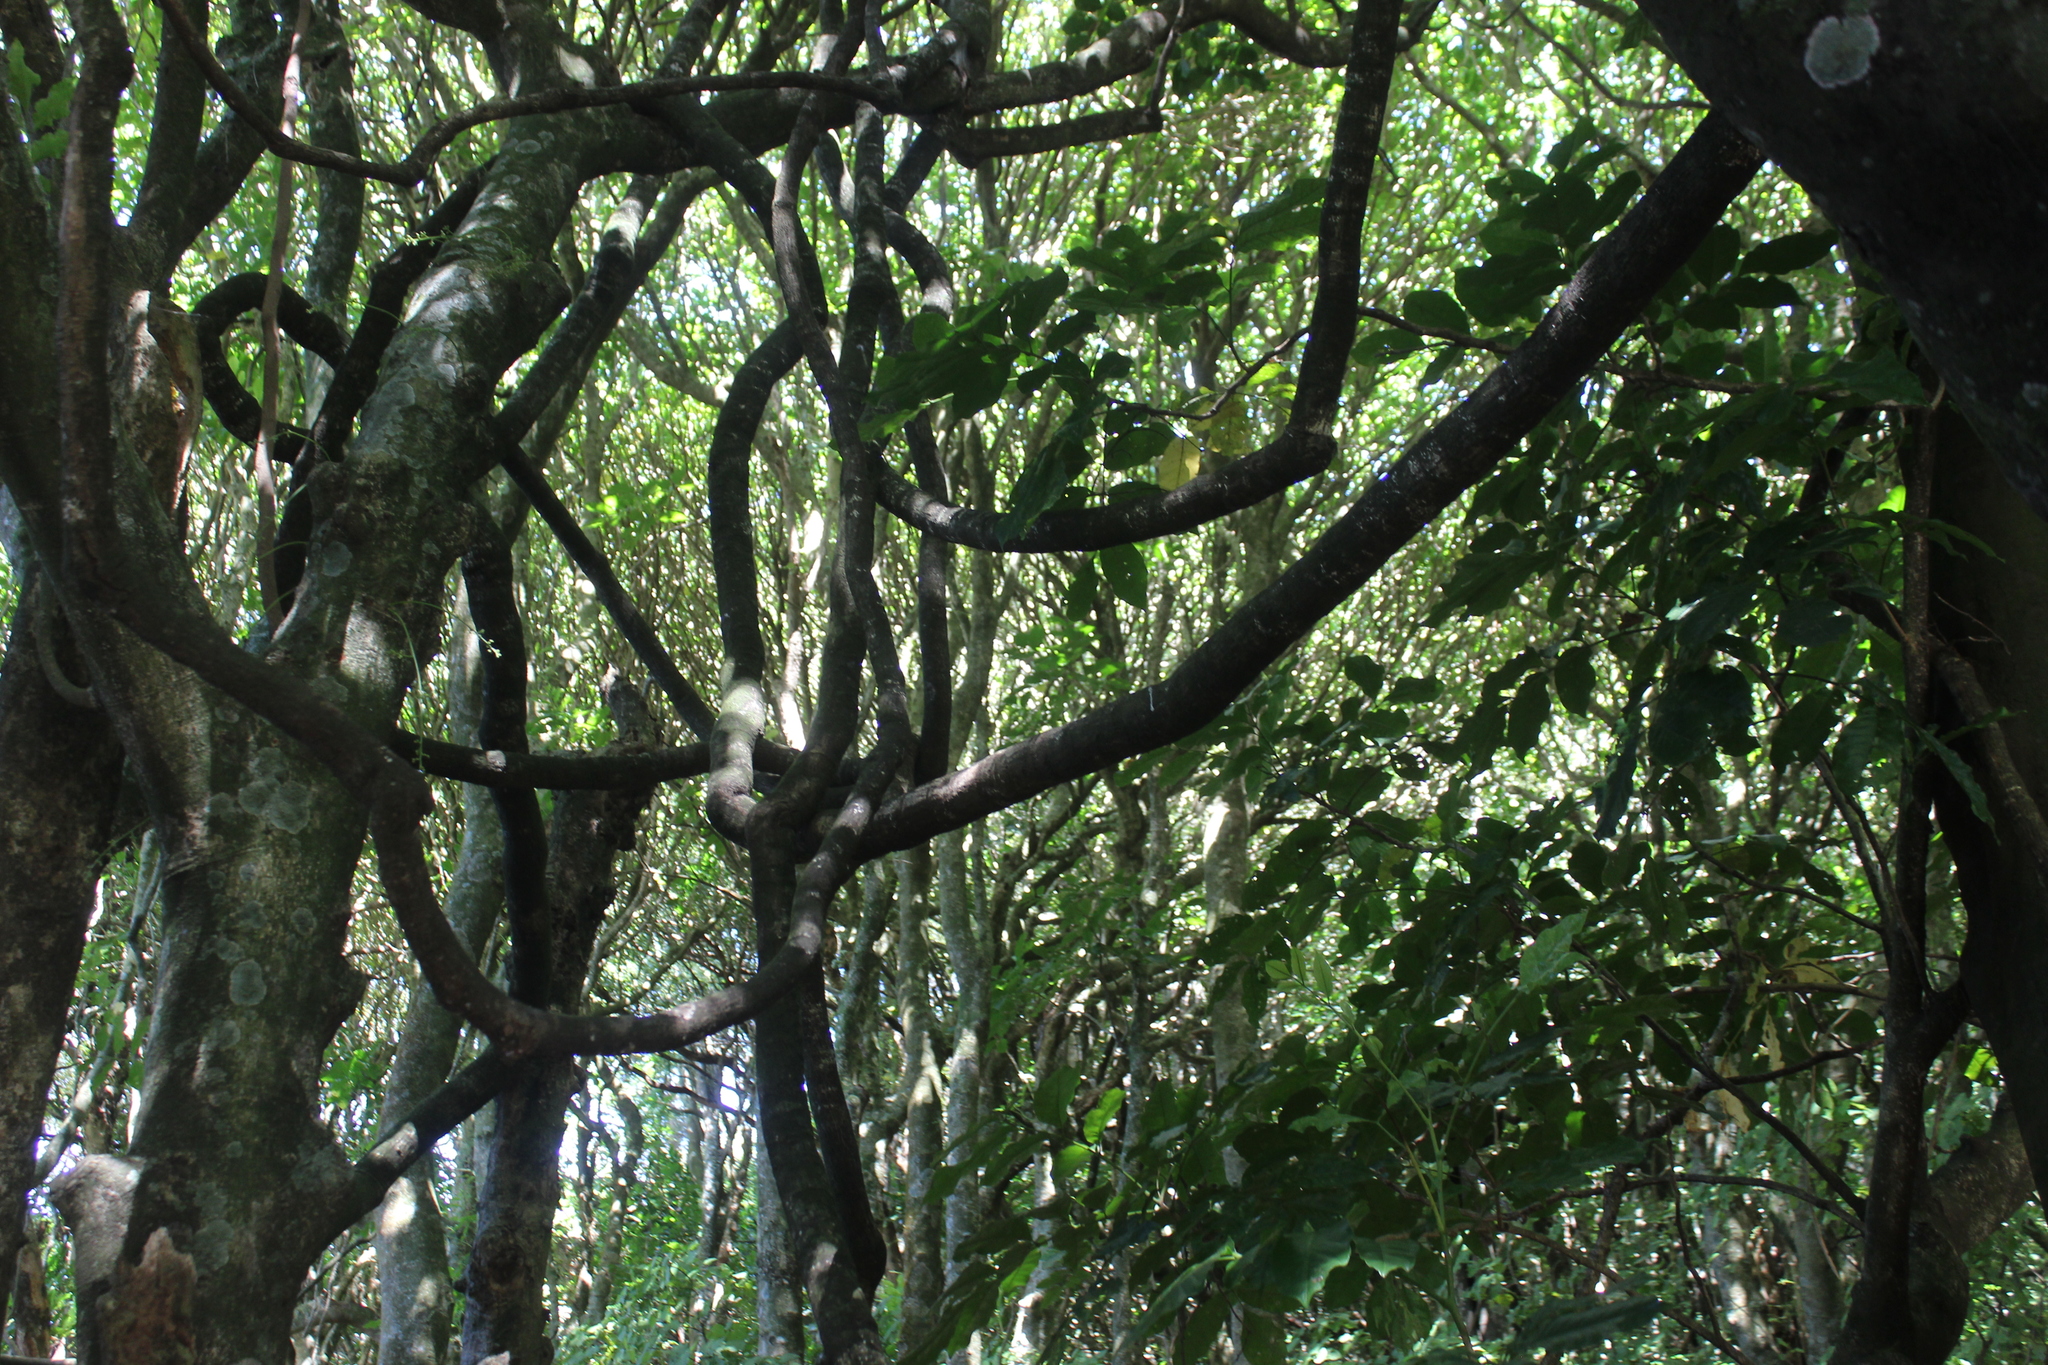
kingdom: Plantae
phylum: Tracheophyta
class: Magnoliopsida
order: Malpighiales
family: Passifloraceae
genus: Passiflora
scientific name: Passiflora tetrandra
